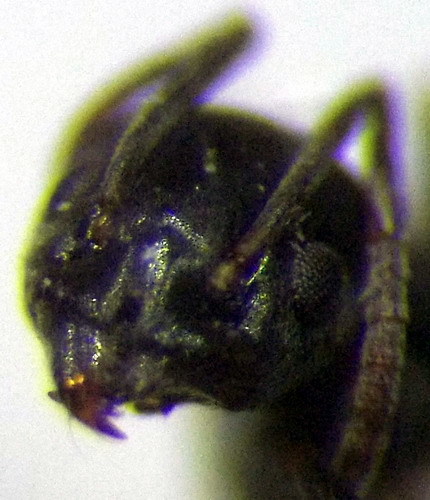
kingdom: Animalia
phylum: Arthropoda
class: Insecta
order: Hymenoptera
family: Formicidae
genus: Tapinoma
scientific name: Tapinoma erraticum
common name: Erratic ant
